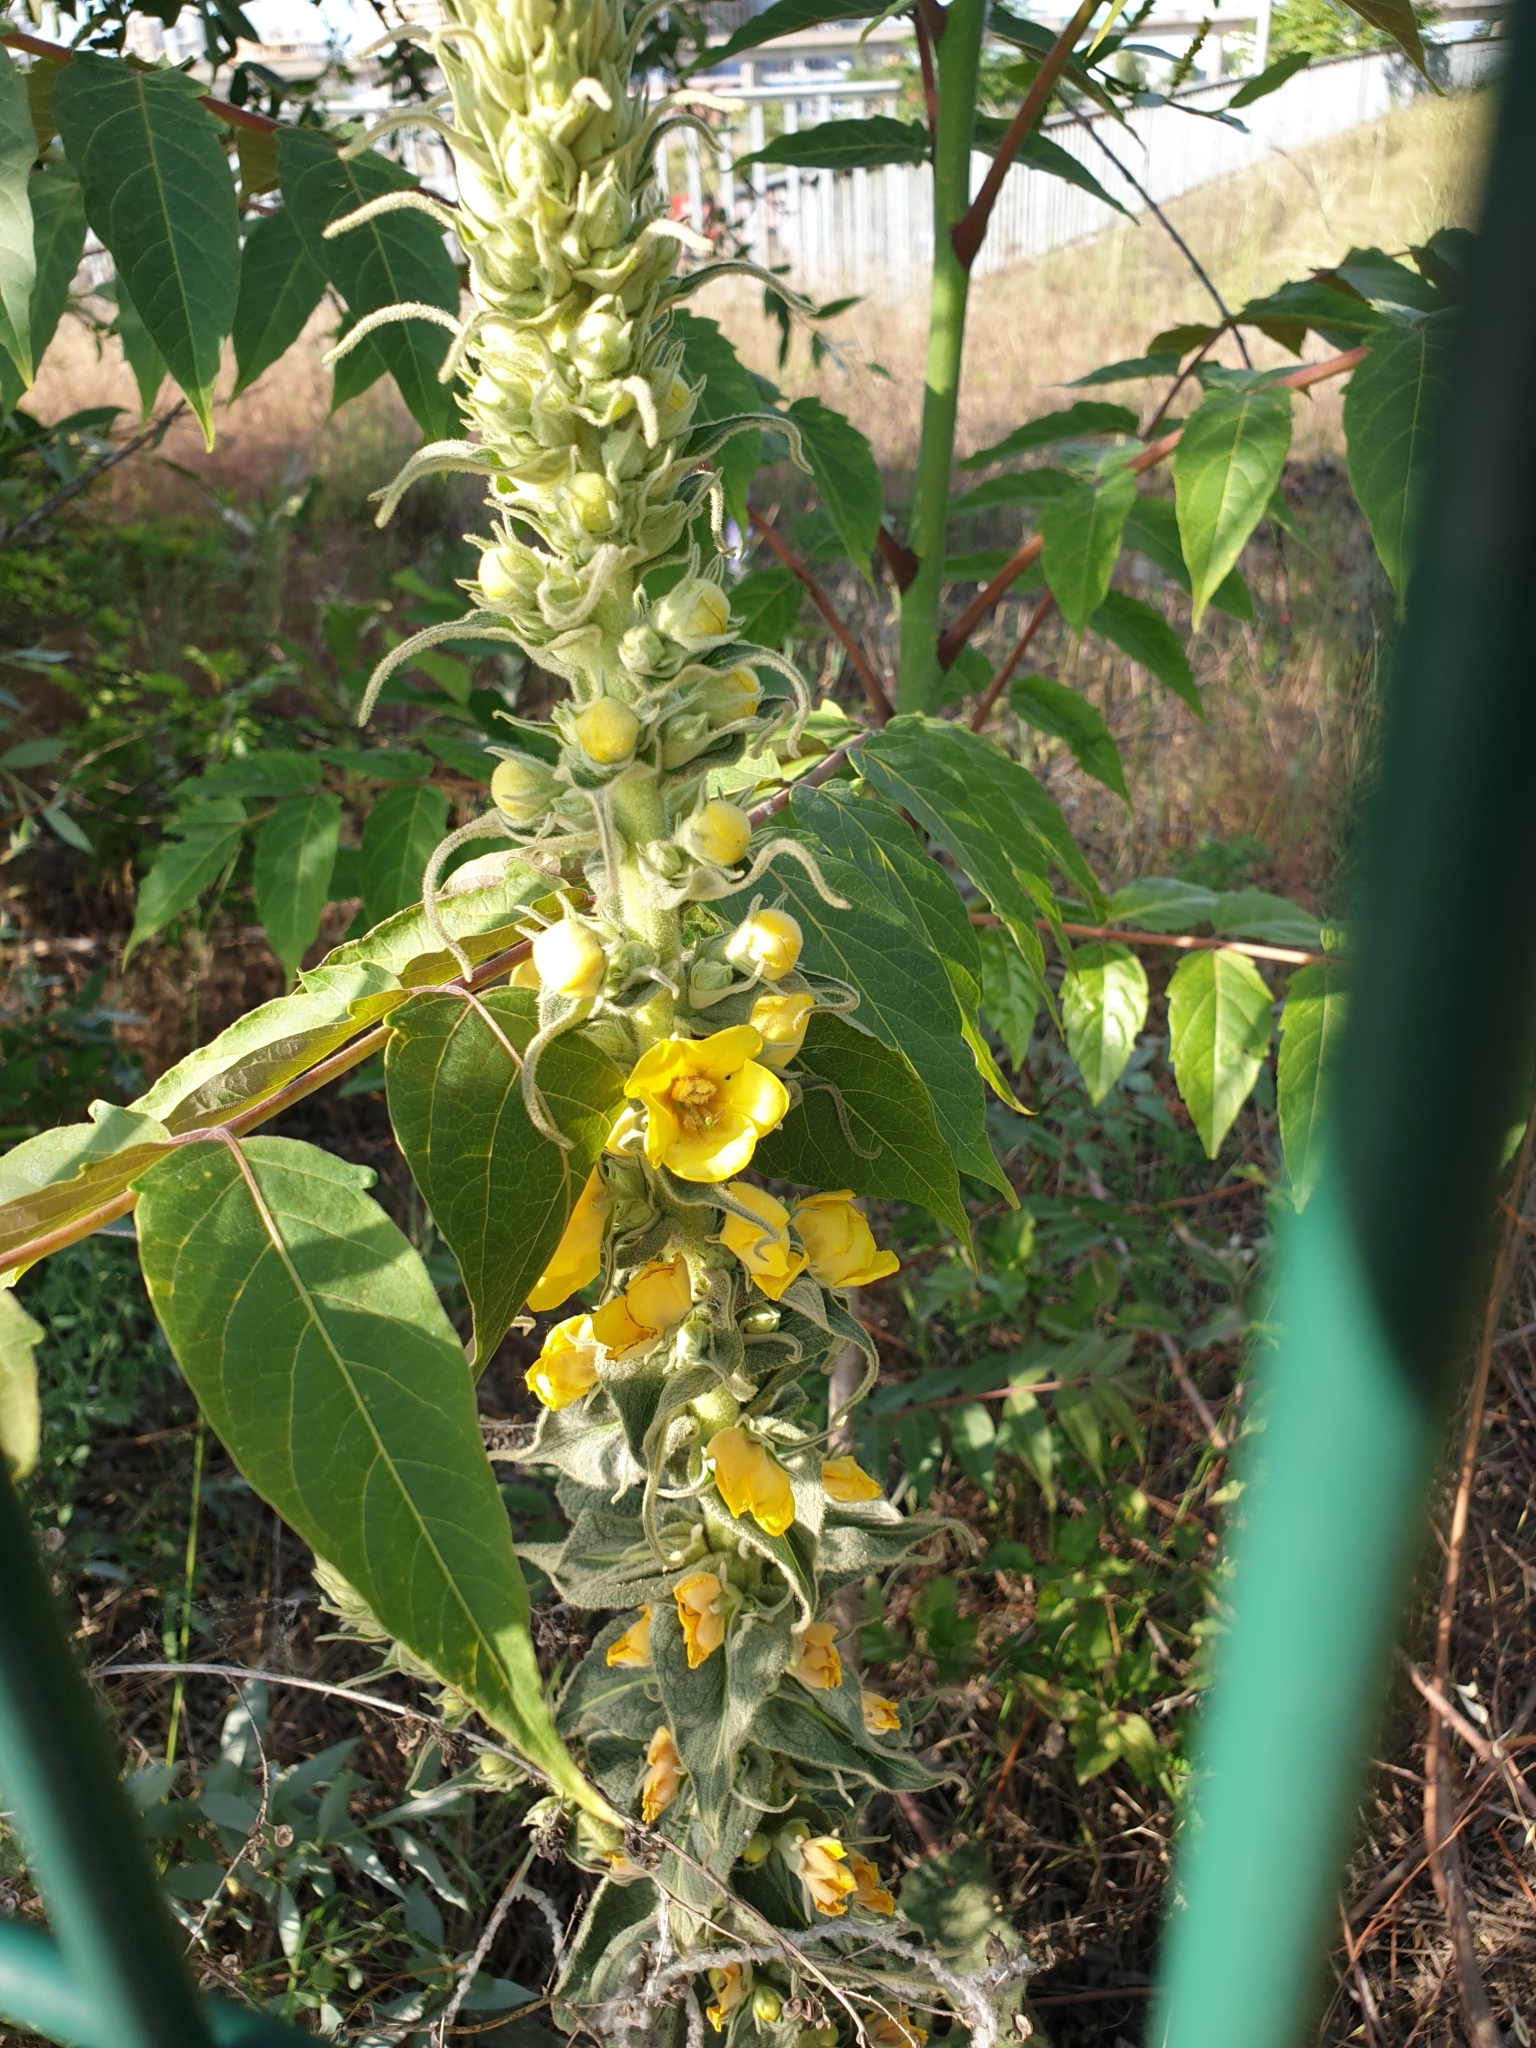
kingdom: Plantae
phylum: Tracheophyta
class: Magnoliopsida
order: Lamiales
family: Scrophulariaceae
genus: Verbascum
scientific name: Verbascum phlomoides
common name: Orange mullein
